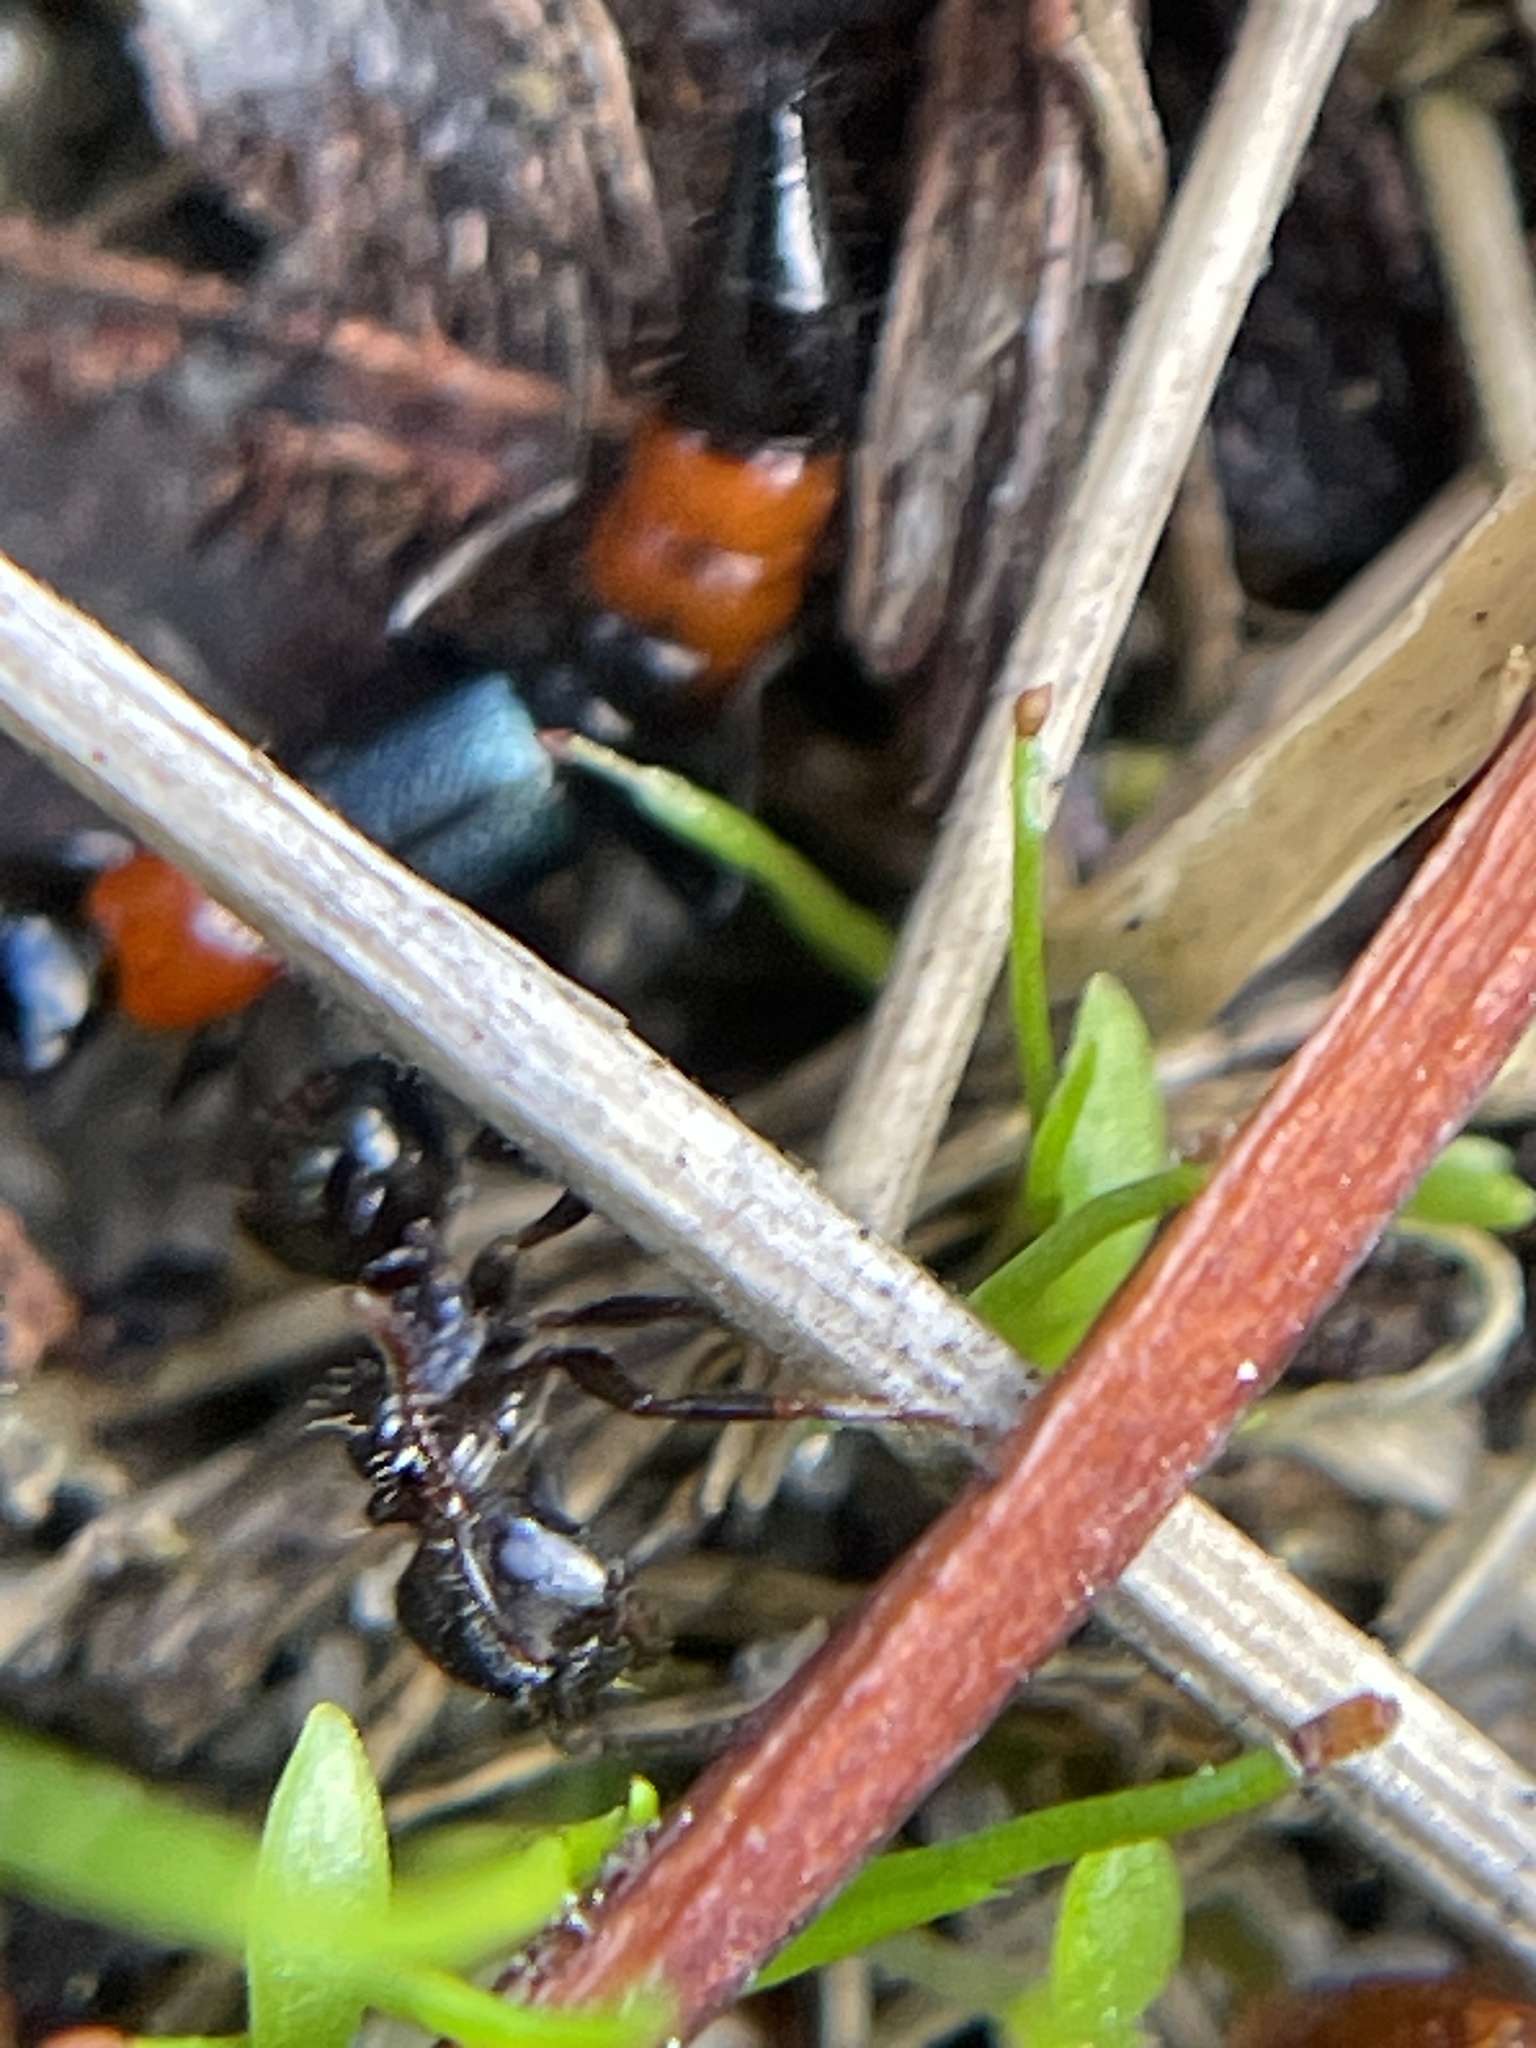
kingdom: Animalia
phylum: Arthropoda
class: Insecta
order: Hymenoptera
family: Formicidae
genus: Notoncus
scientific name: Notoncus
